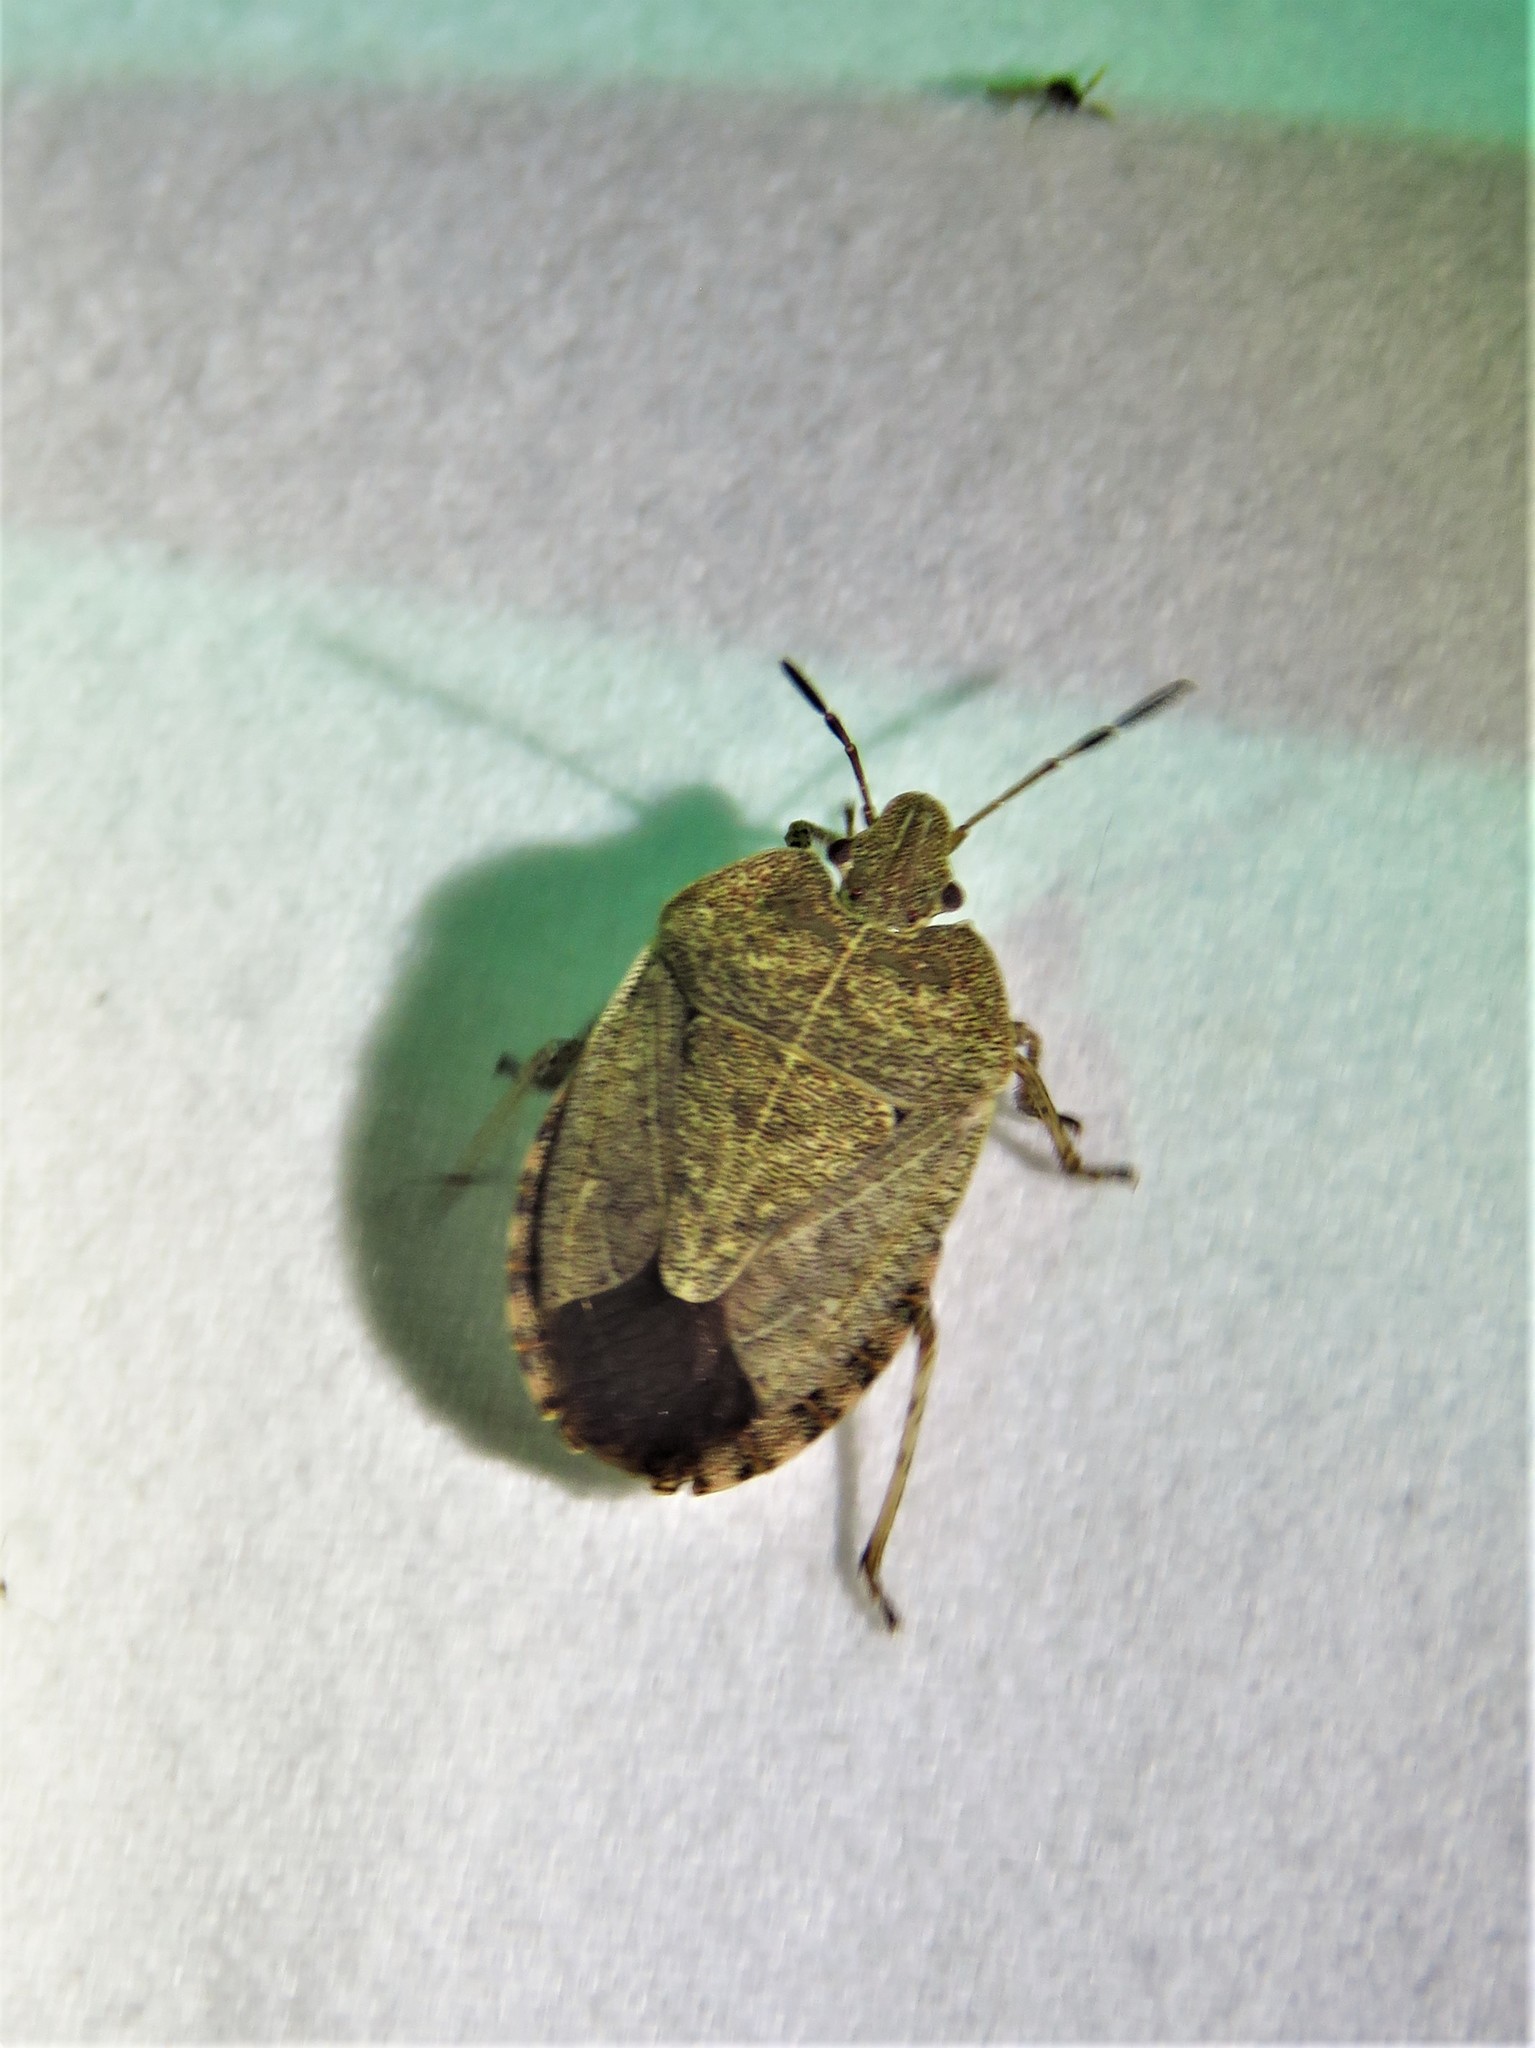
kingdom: Animalia
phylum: Arthropoda
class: Insecta
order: Hemiptera
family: Pentatomidae
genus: Menecles
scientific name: Menecles insertus
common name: Elf shoe stink bug
